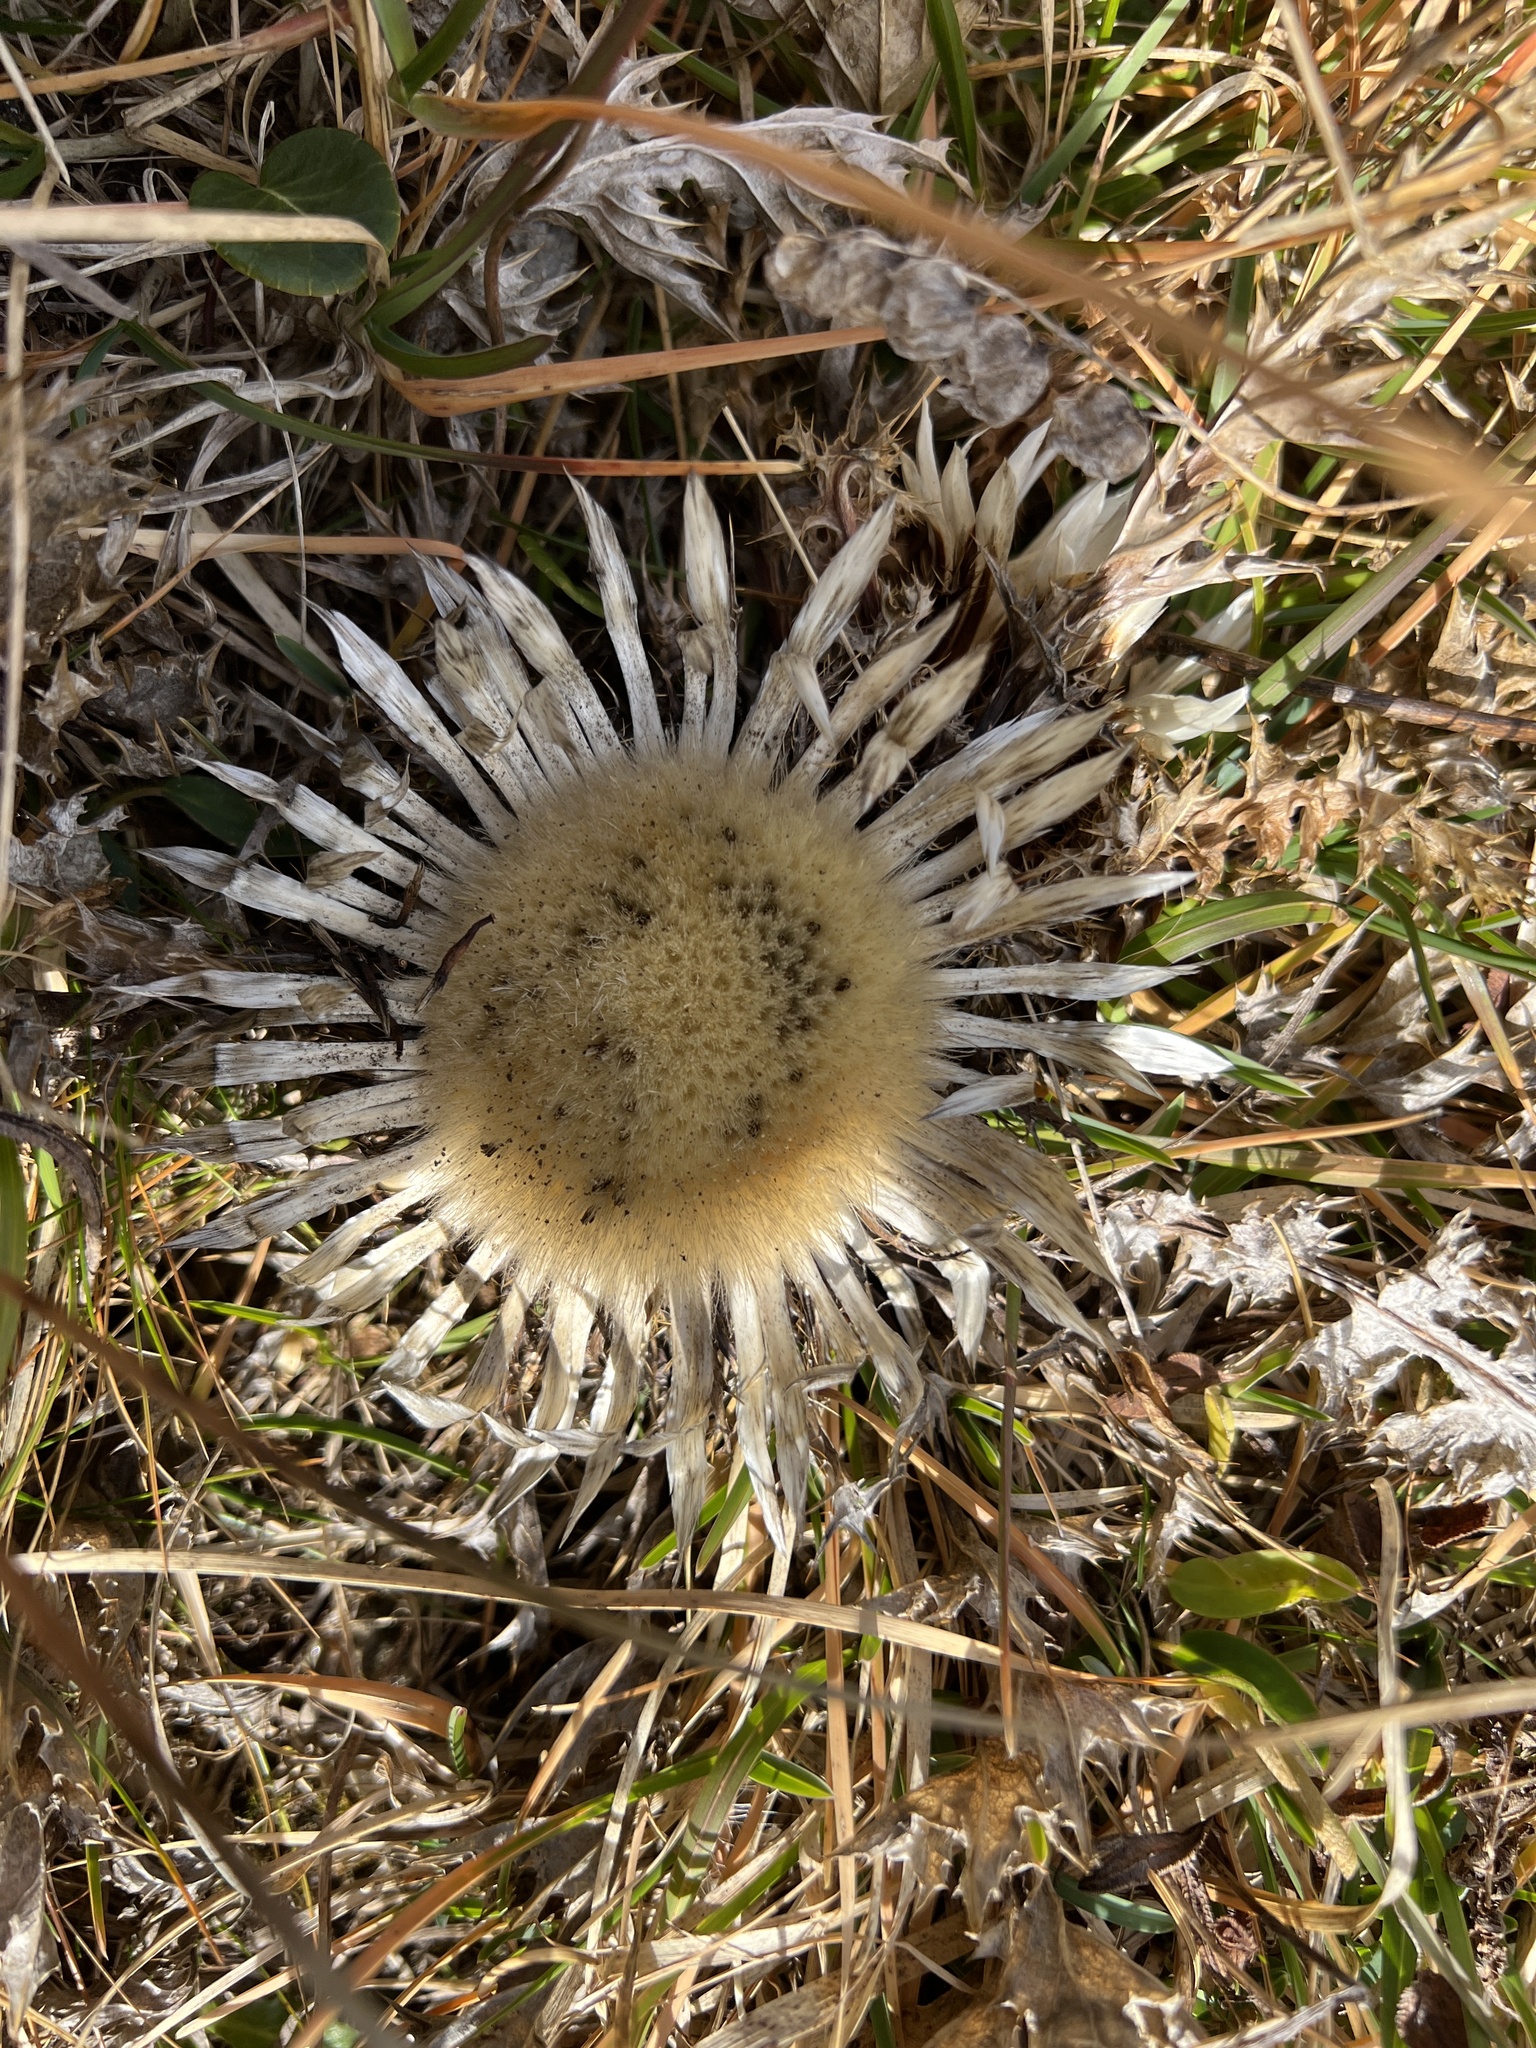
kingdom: Plantae
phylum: Tracheophyta
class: Magnoliopsida
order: Asterales
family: Asteraceae
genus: Carlina
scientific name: Carlina acaulis
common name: Stemless carline thistle
